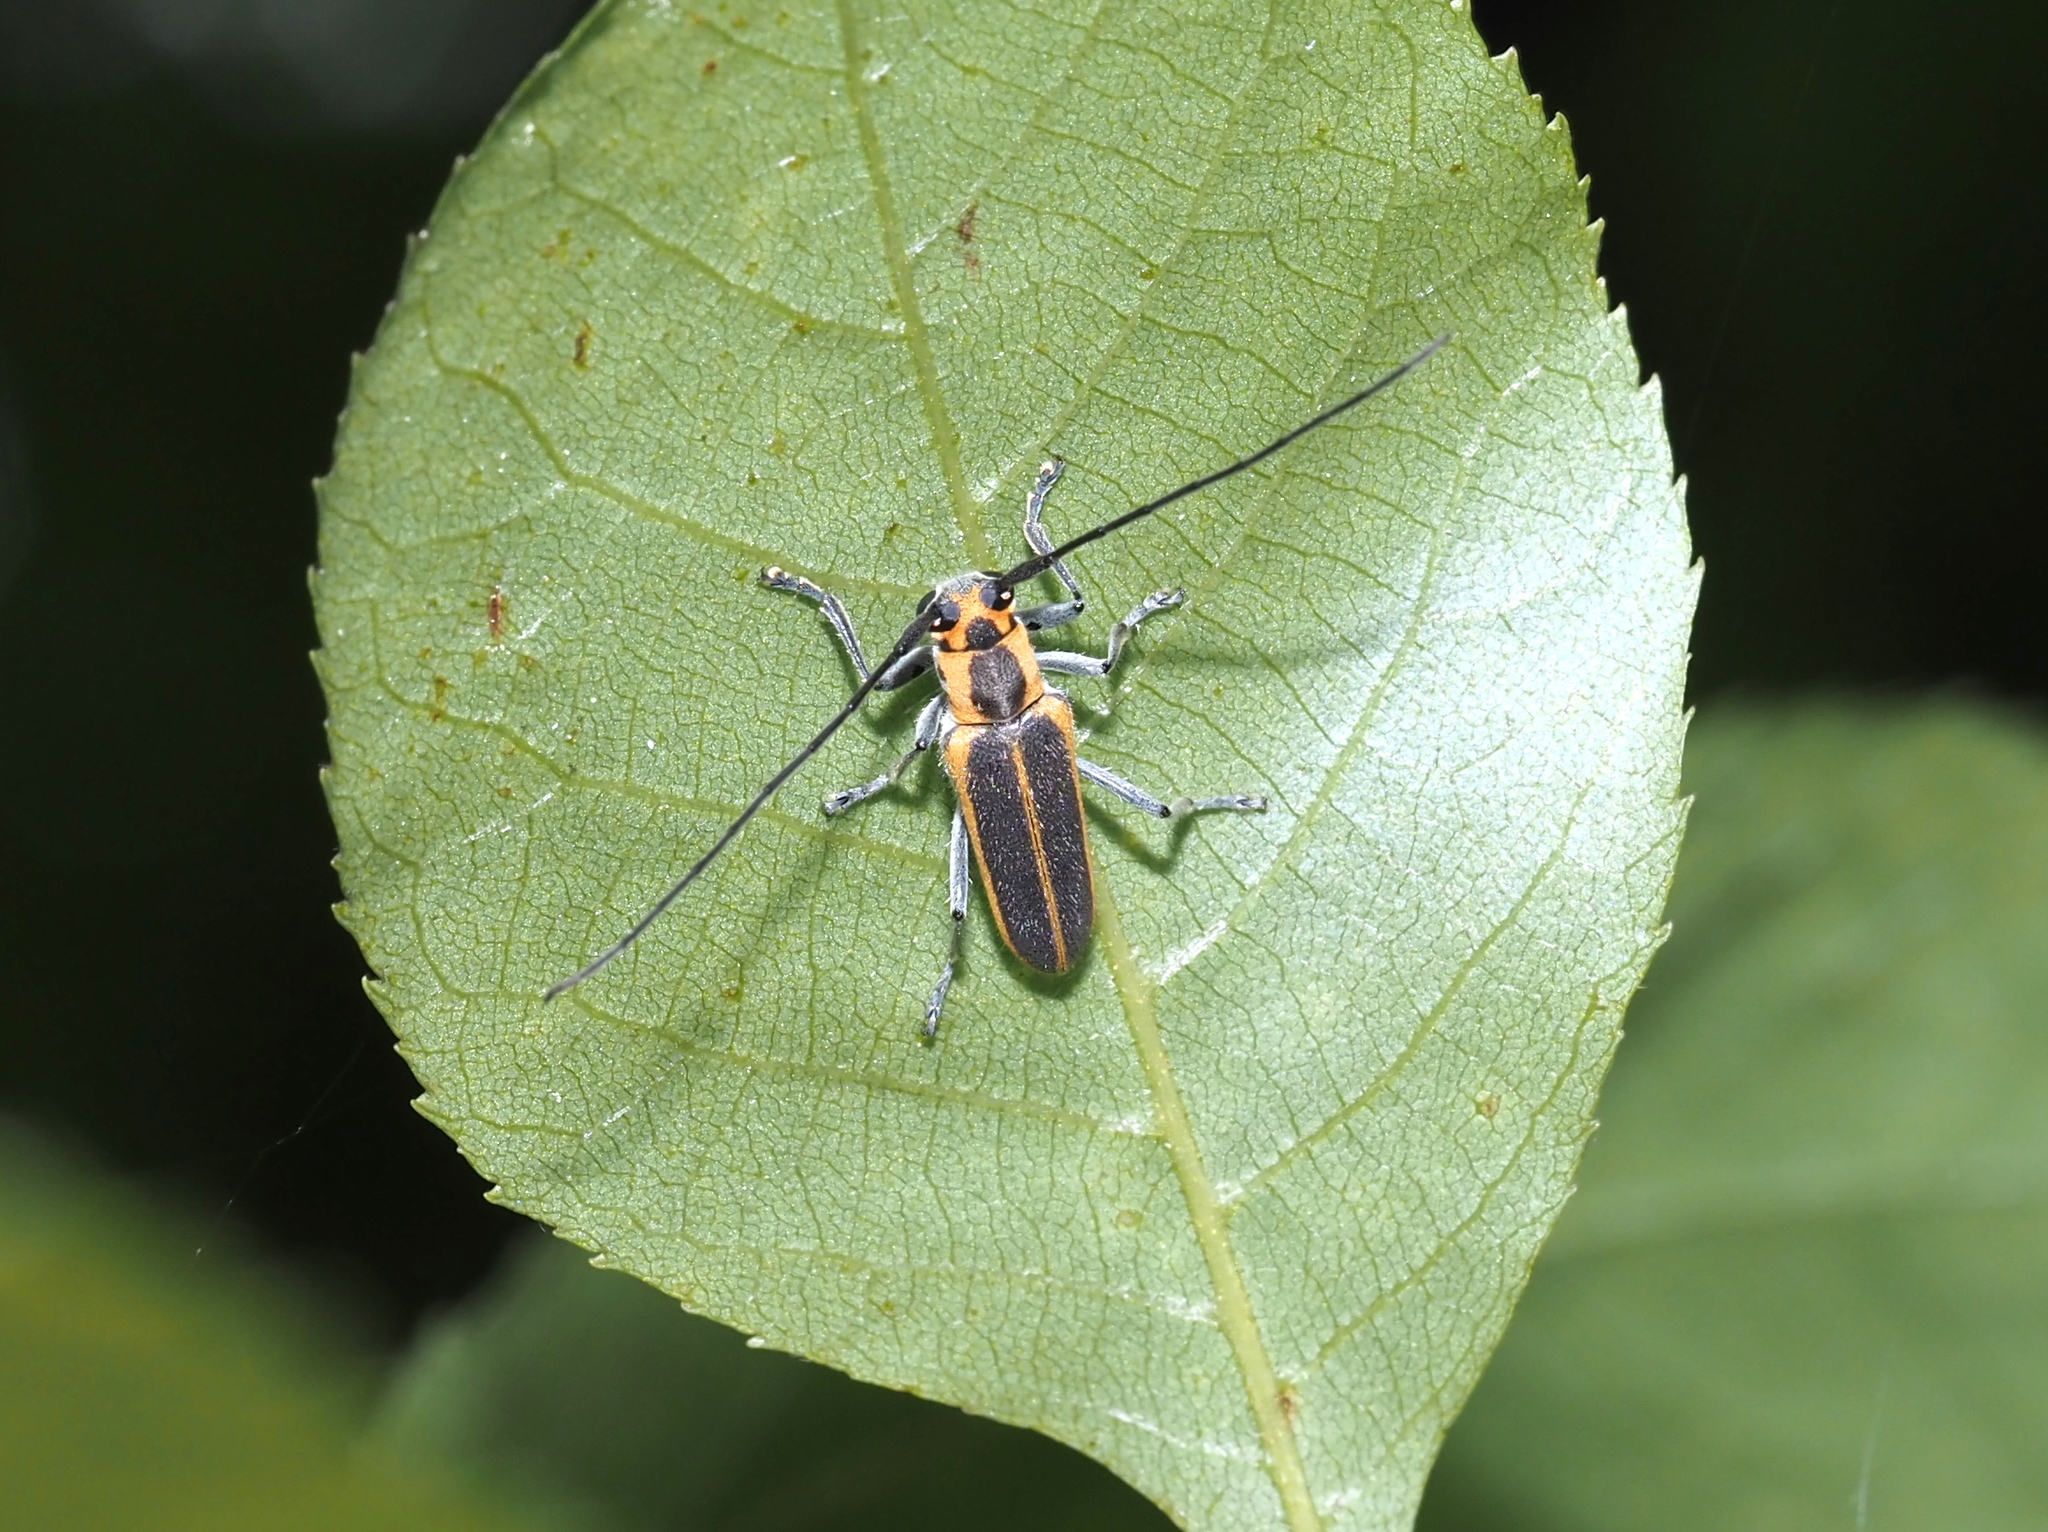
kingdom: Animalia
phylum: Arthropoda
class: Insecta
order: Coleoptera
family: Cerambycidae
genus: Saperda
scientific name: Saperda lateralis
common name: Red-edged saperda
